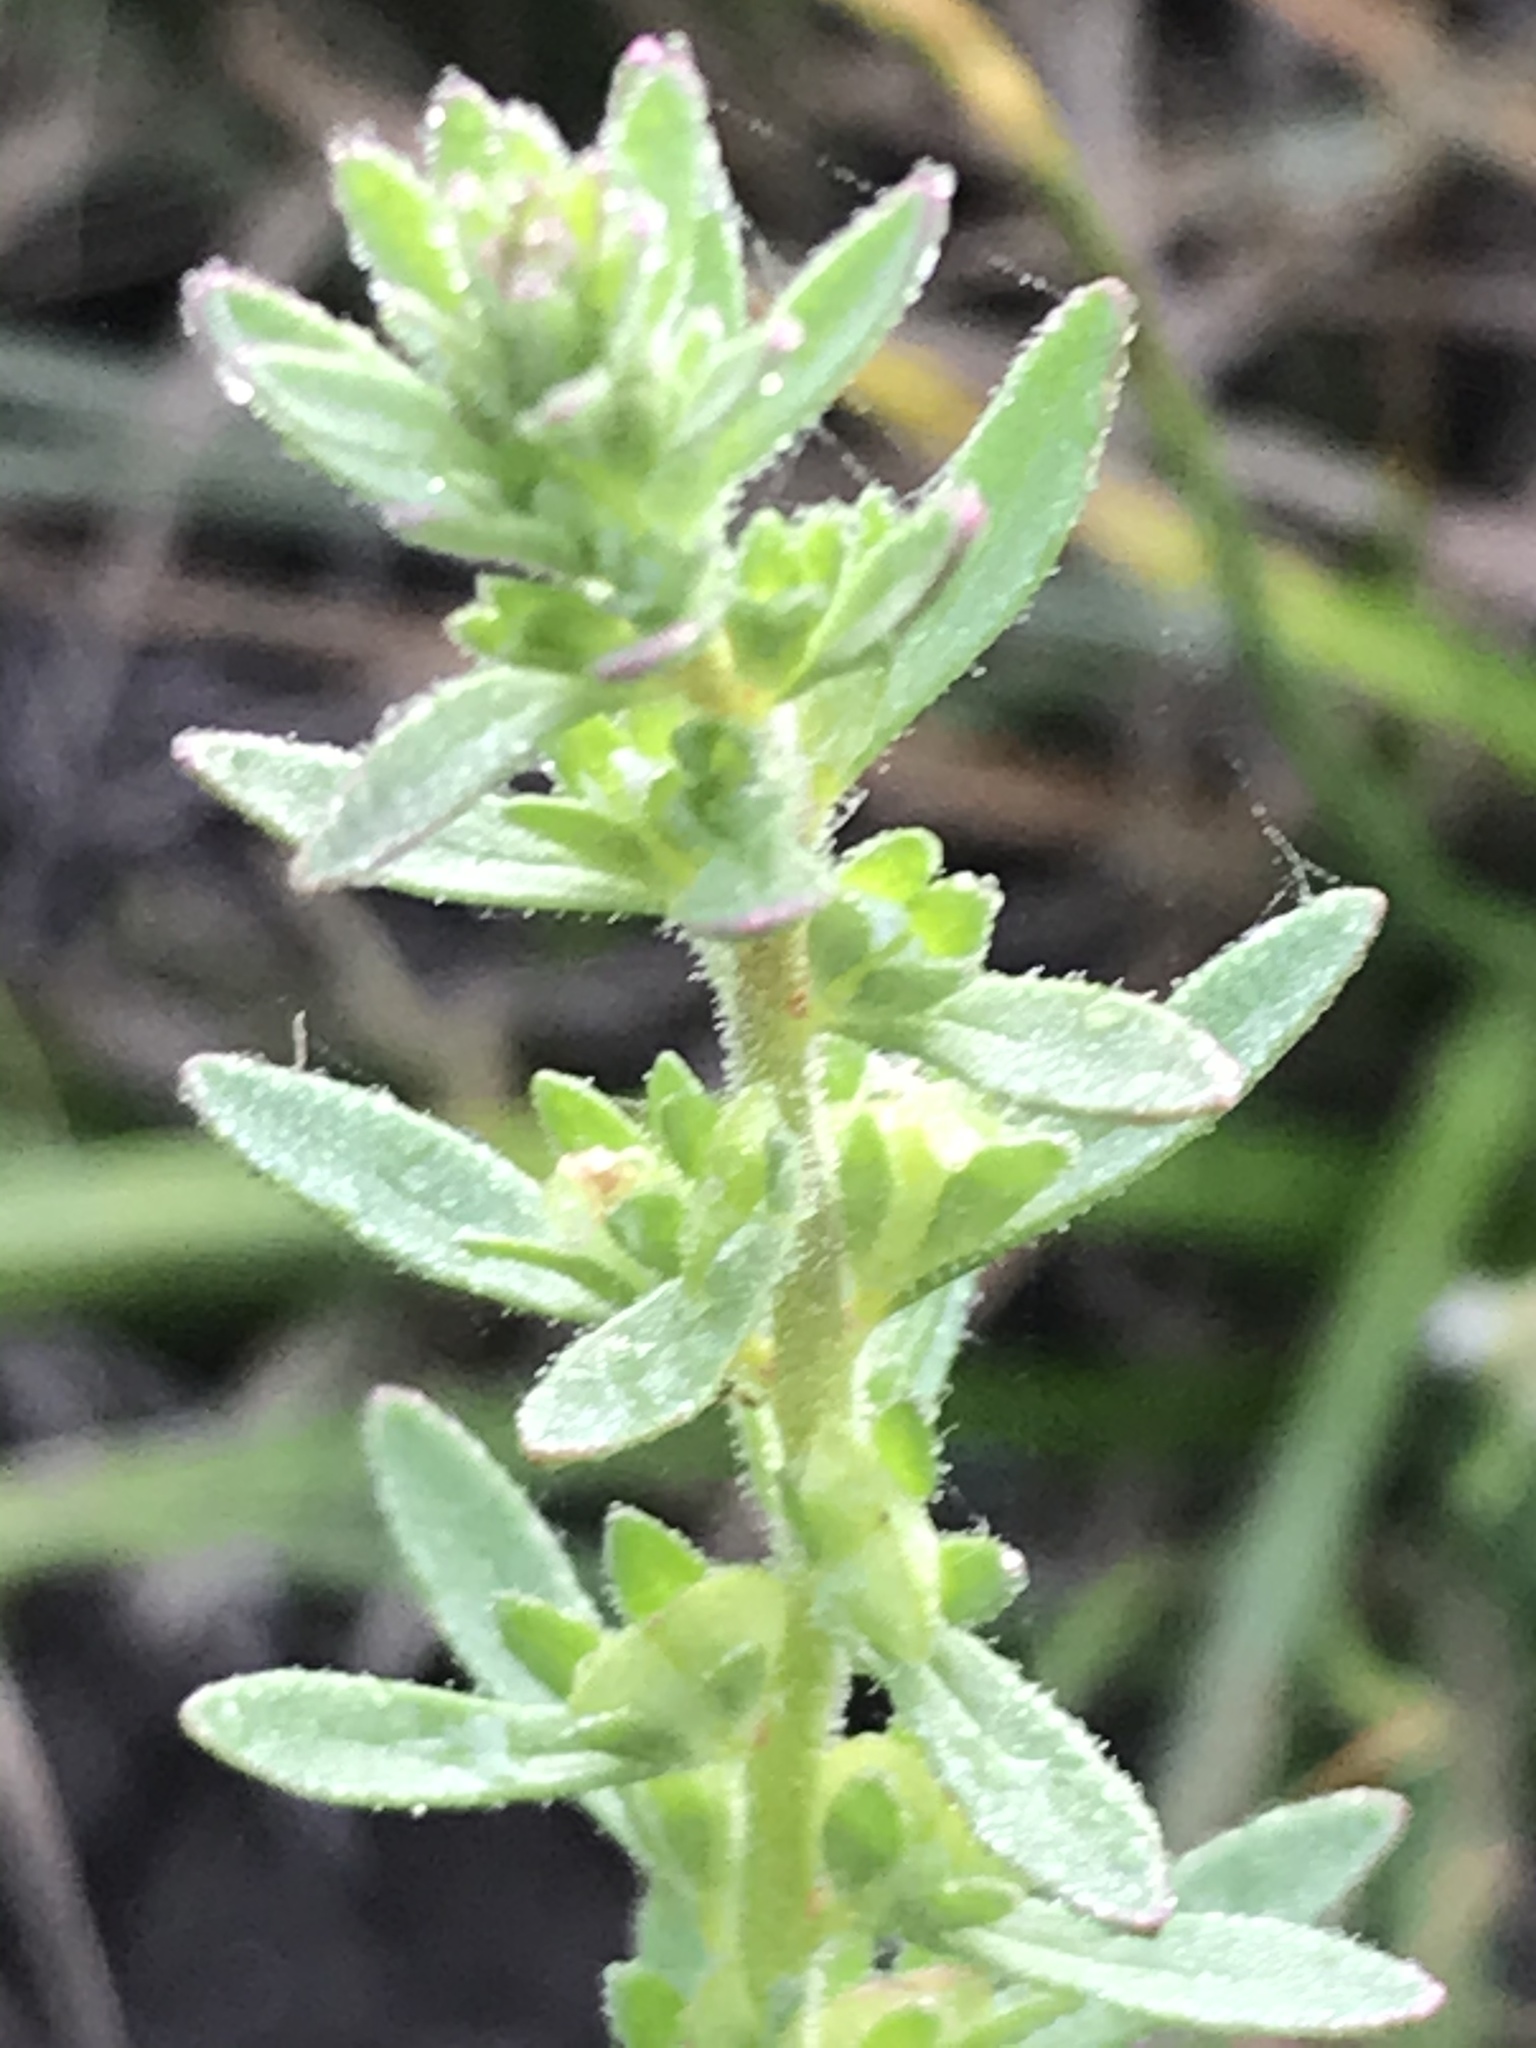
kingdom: Plantae
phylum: Tracheophyta
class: Magnoliopsida
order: Lamiales
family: Plantaginaceae
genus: Veronica
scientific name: Veronica peregrina
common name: Neckweed
